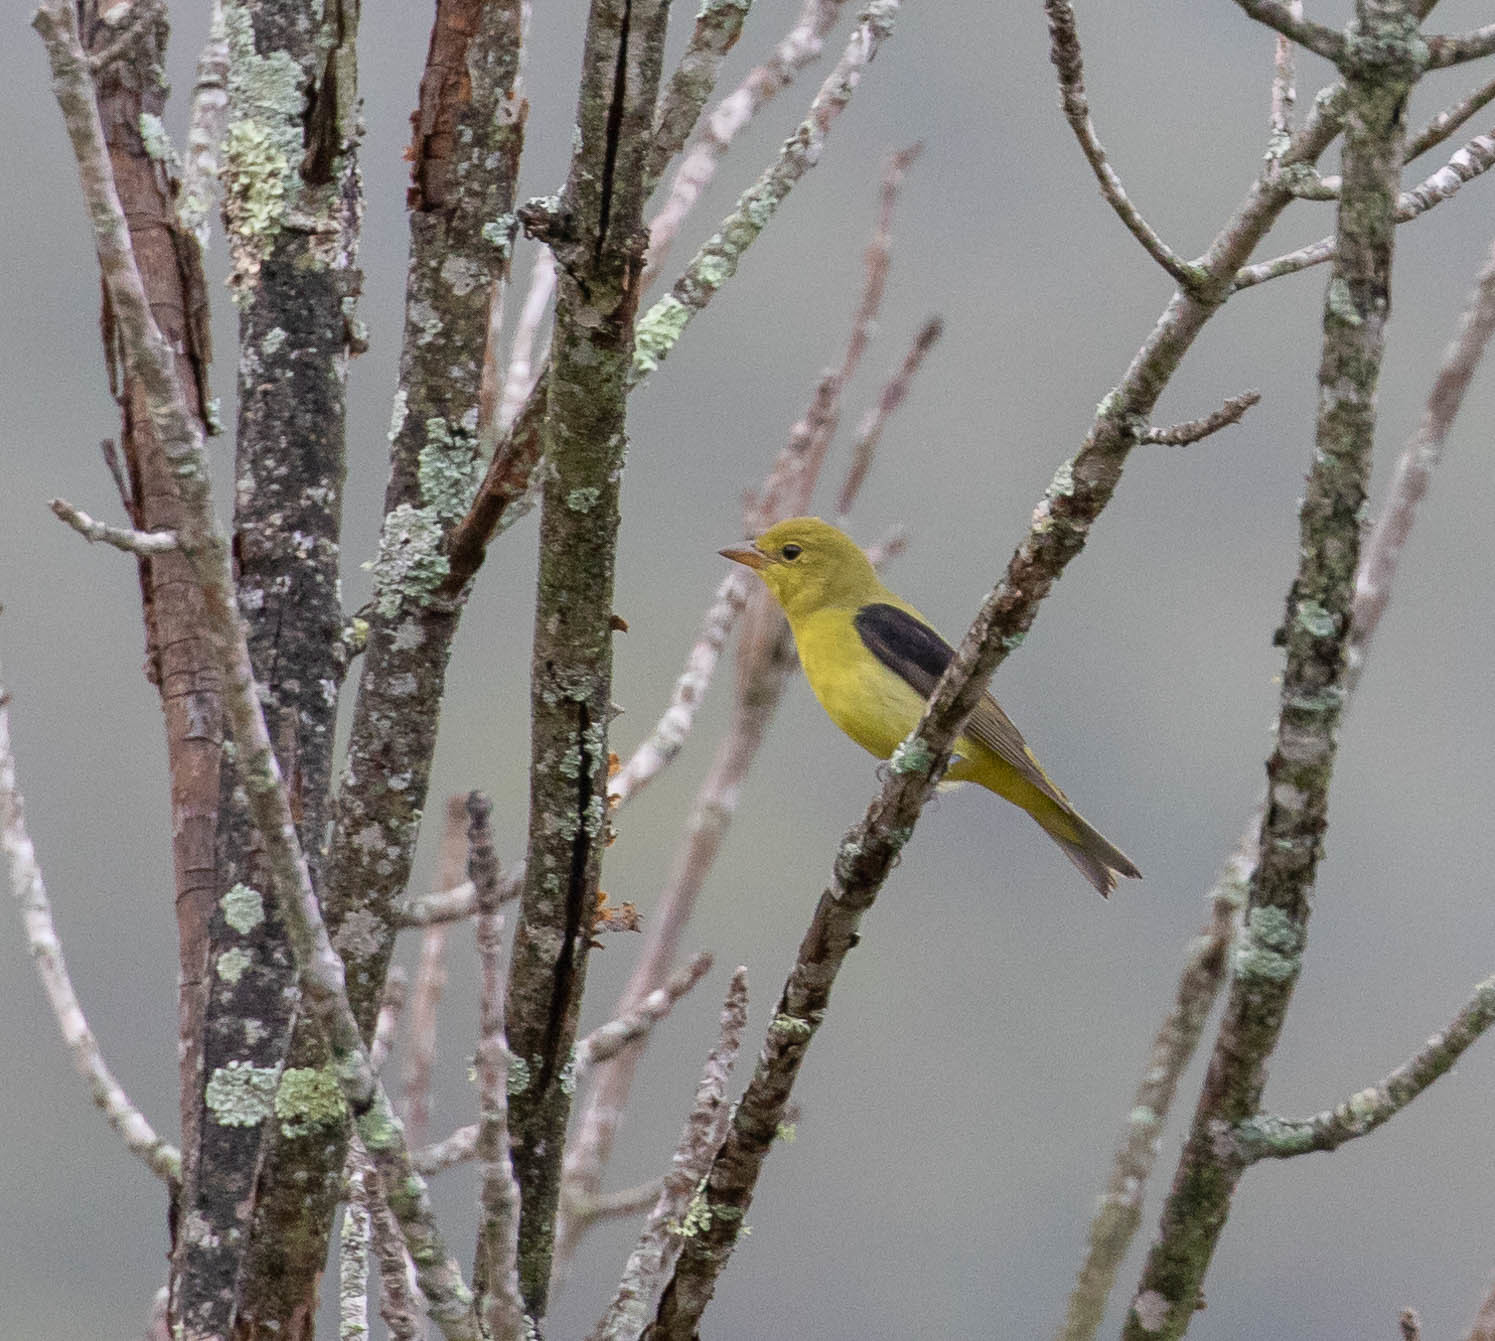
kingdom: Animalia
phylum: Chordata
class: Aves
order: Passeriformes
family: Cardinalidae
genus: Piranga
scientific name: Piranga olivacea
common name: Scarlet tanager
